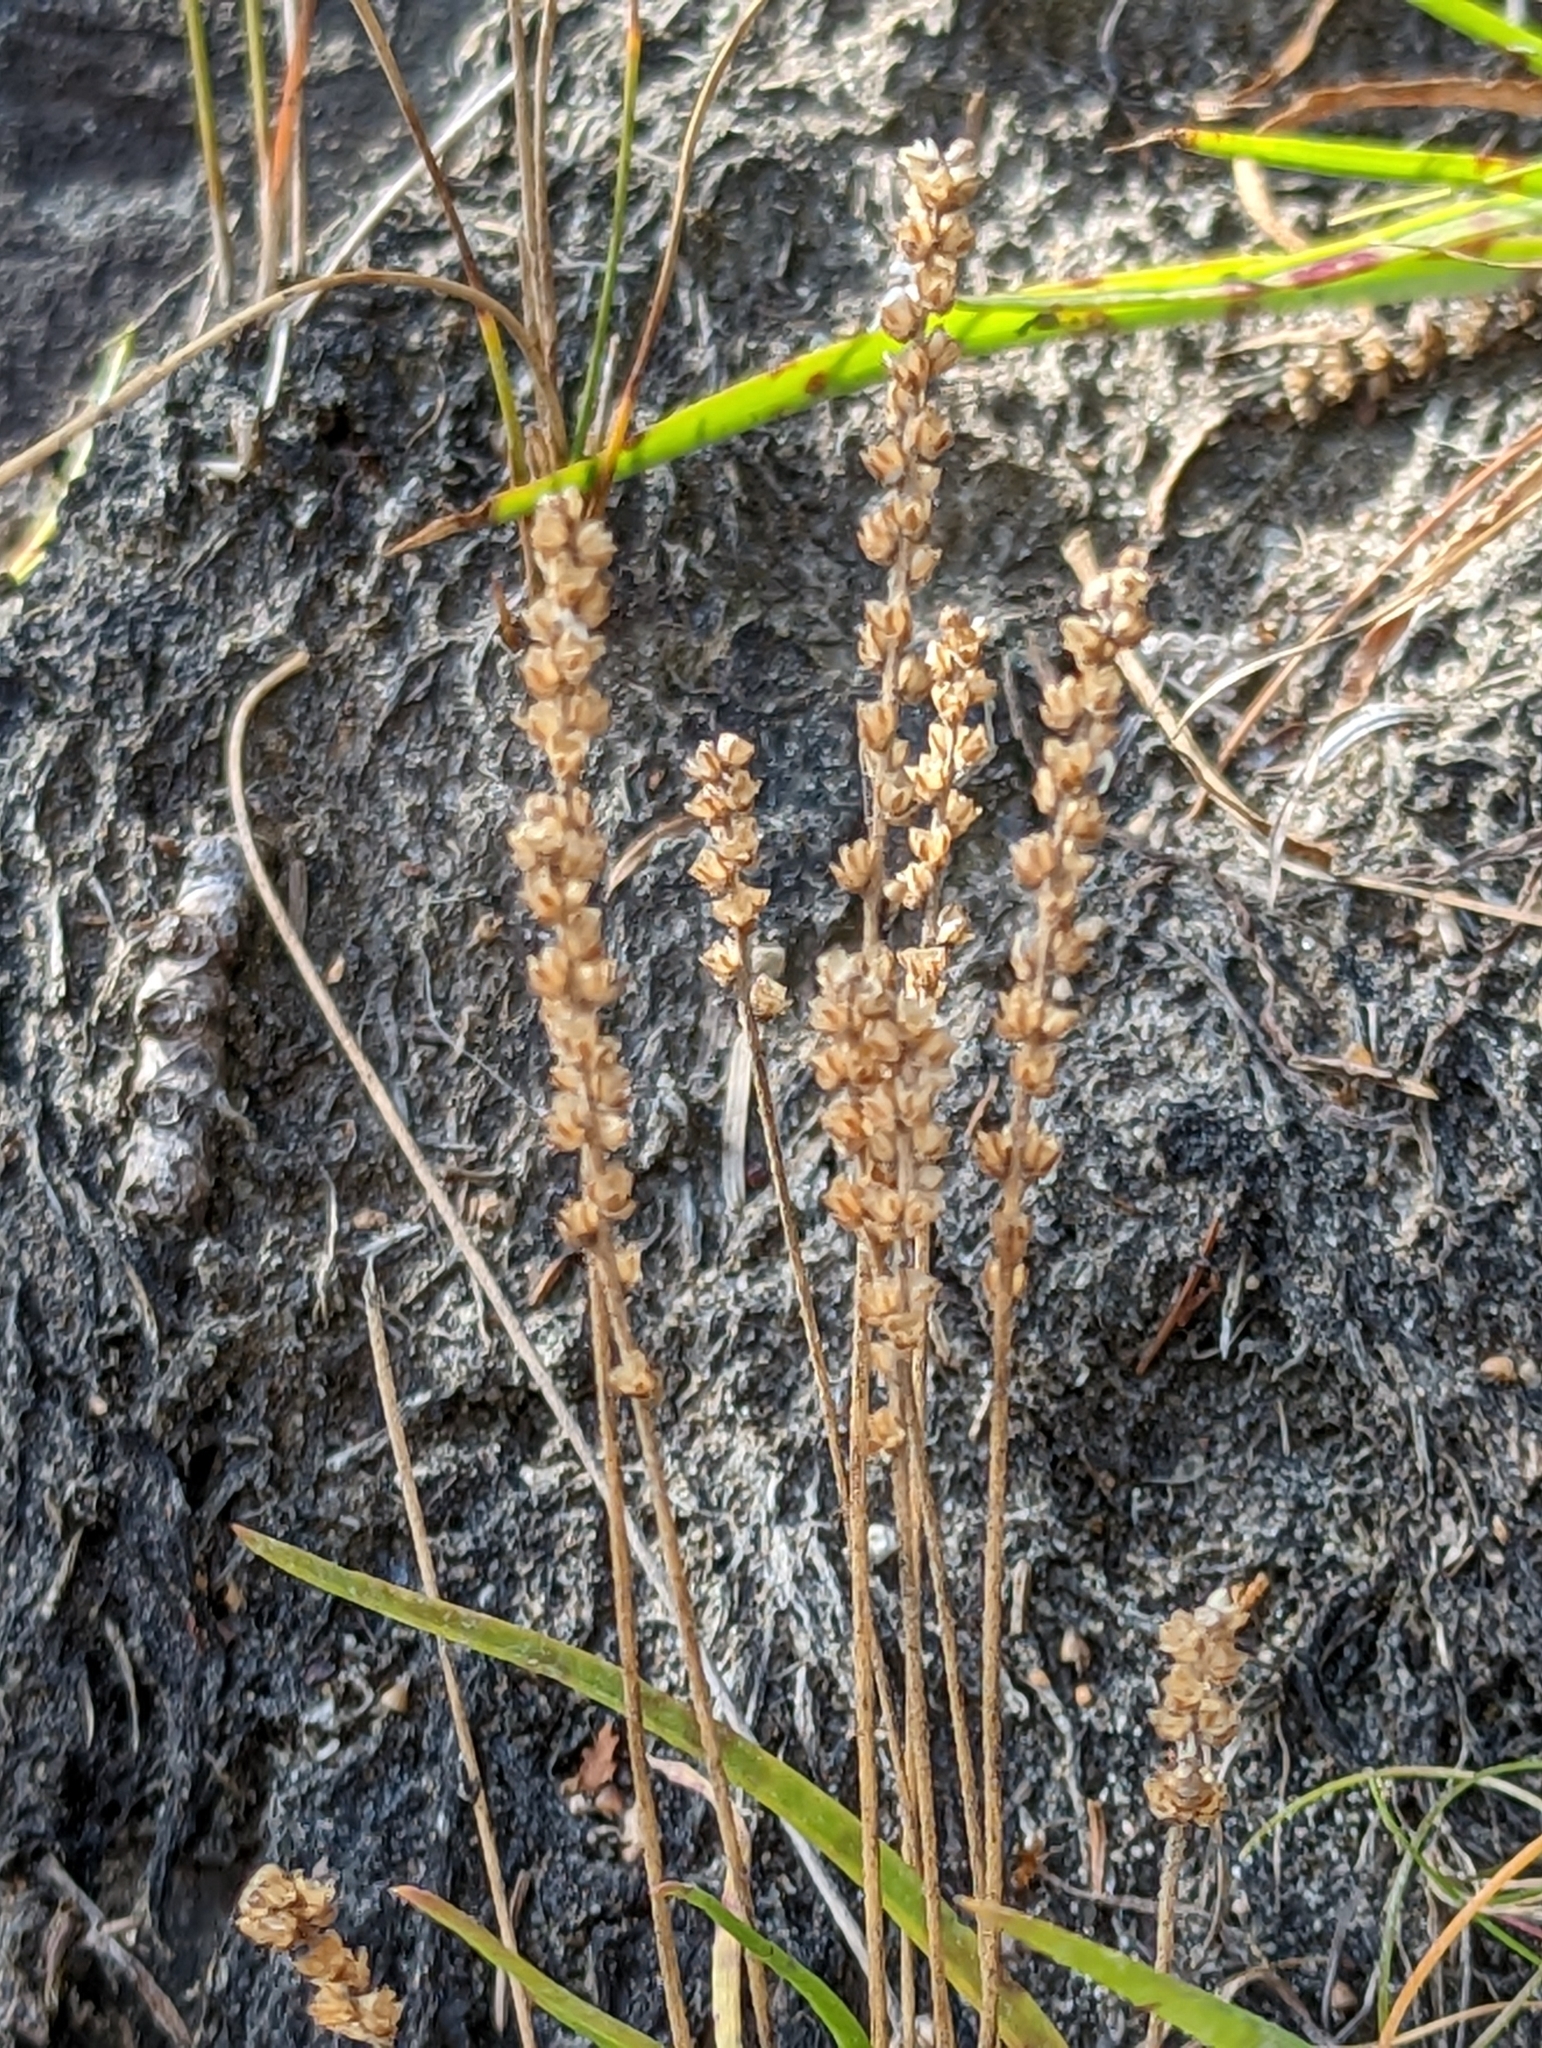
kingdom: Plantae
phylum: Tracheophyta
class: Magnoliopsida
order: Lamiales
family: Plantaginaceae
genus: Plantago
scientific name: Plantago maritima
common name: Sea plantain
